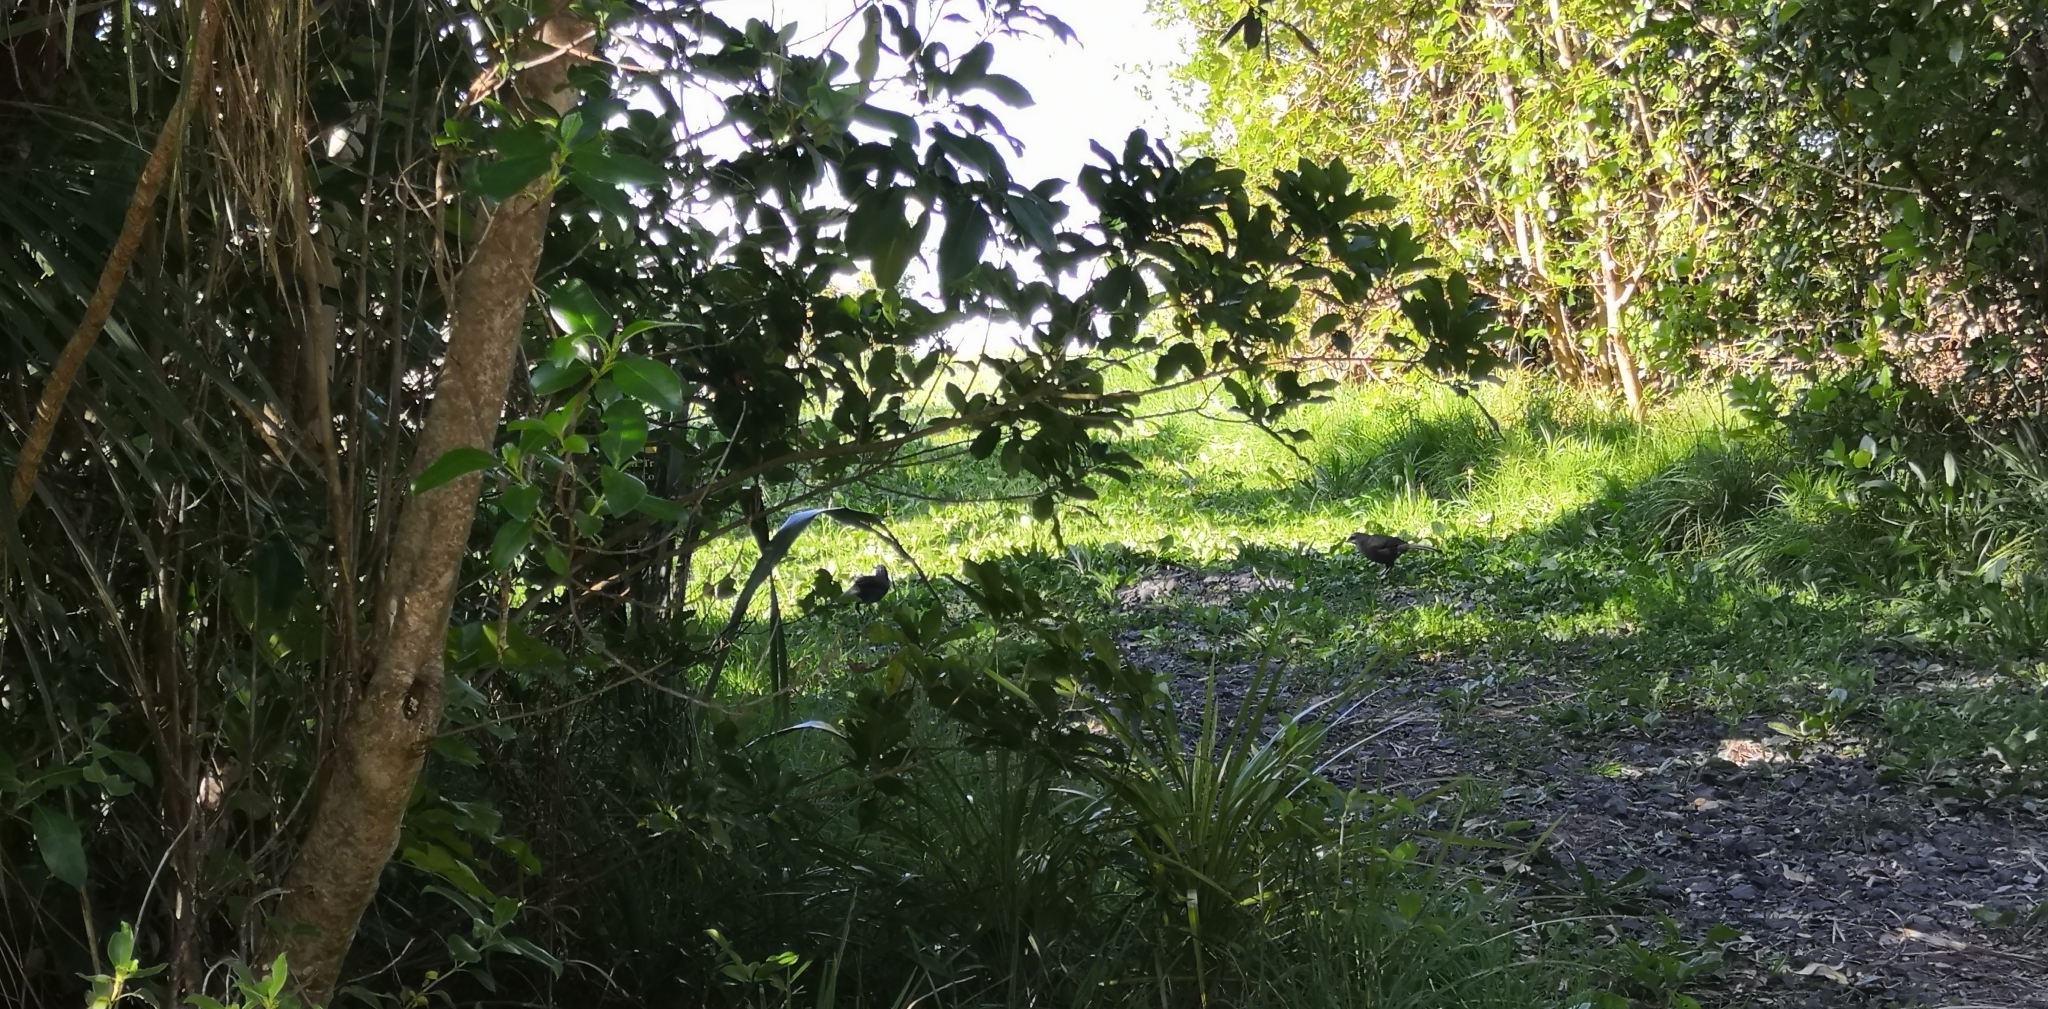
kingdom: Animalia
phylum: Chordata
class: Aves
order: Passeriformes
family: Callaeatidae
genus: Callaeas
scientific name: Callaeas cinereus
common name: South island kokako
